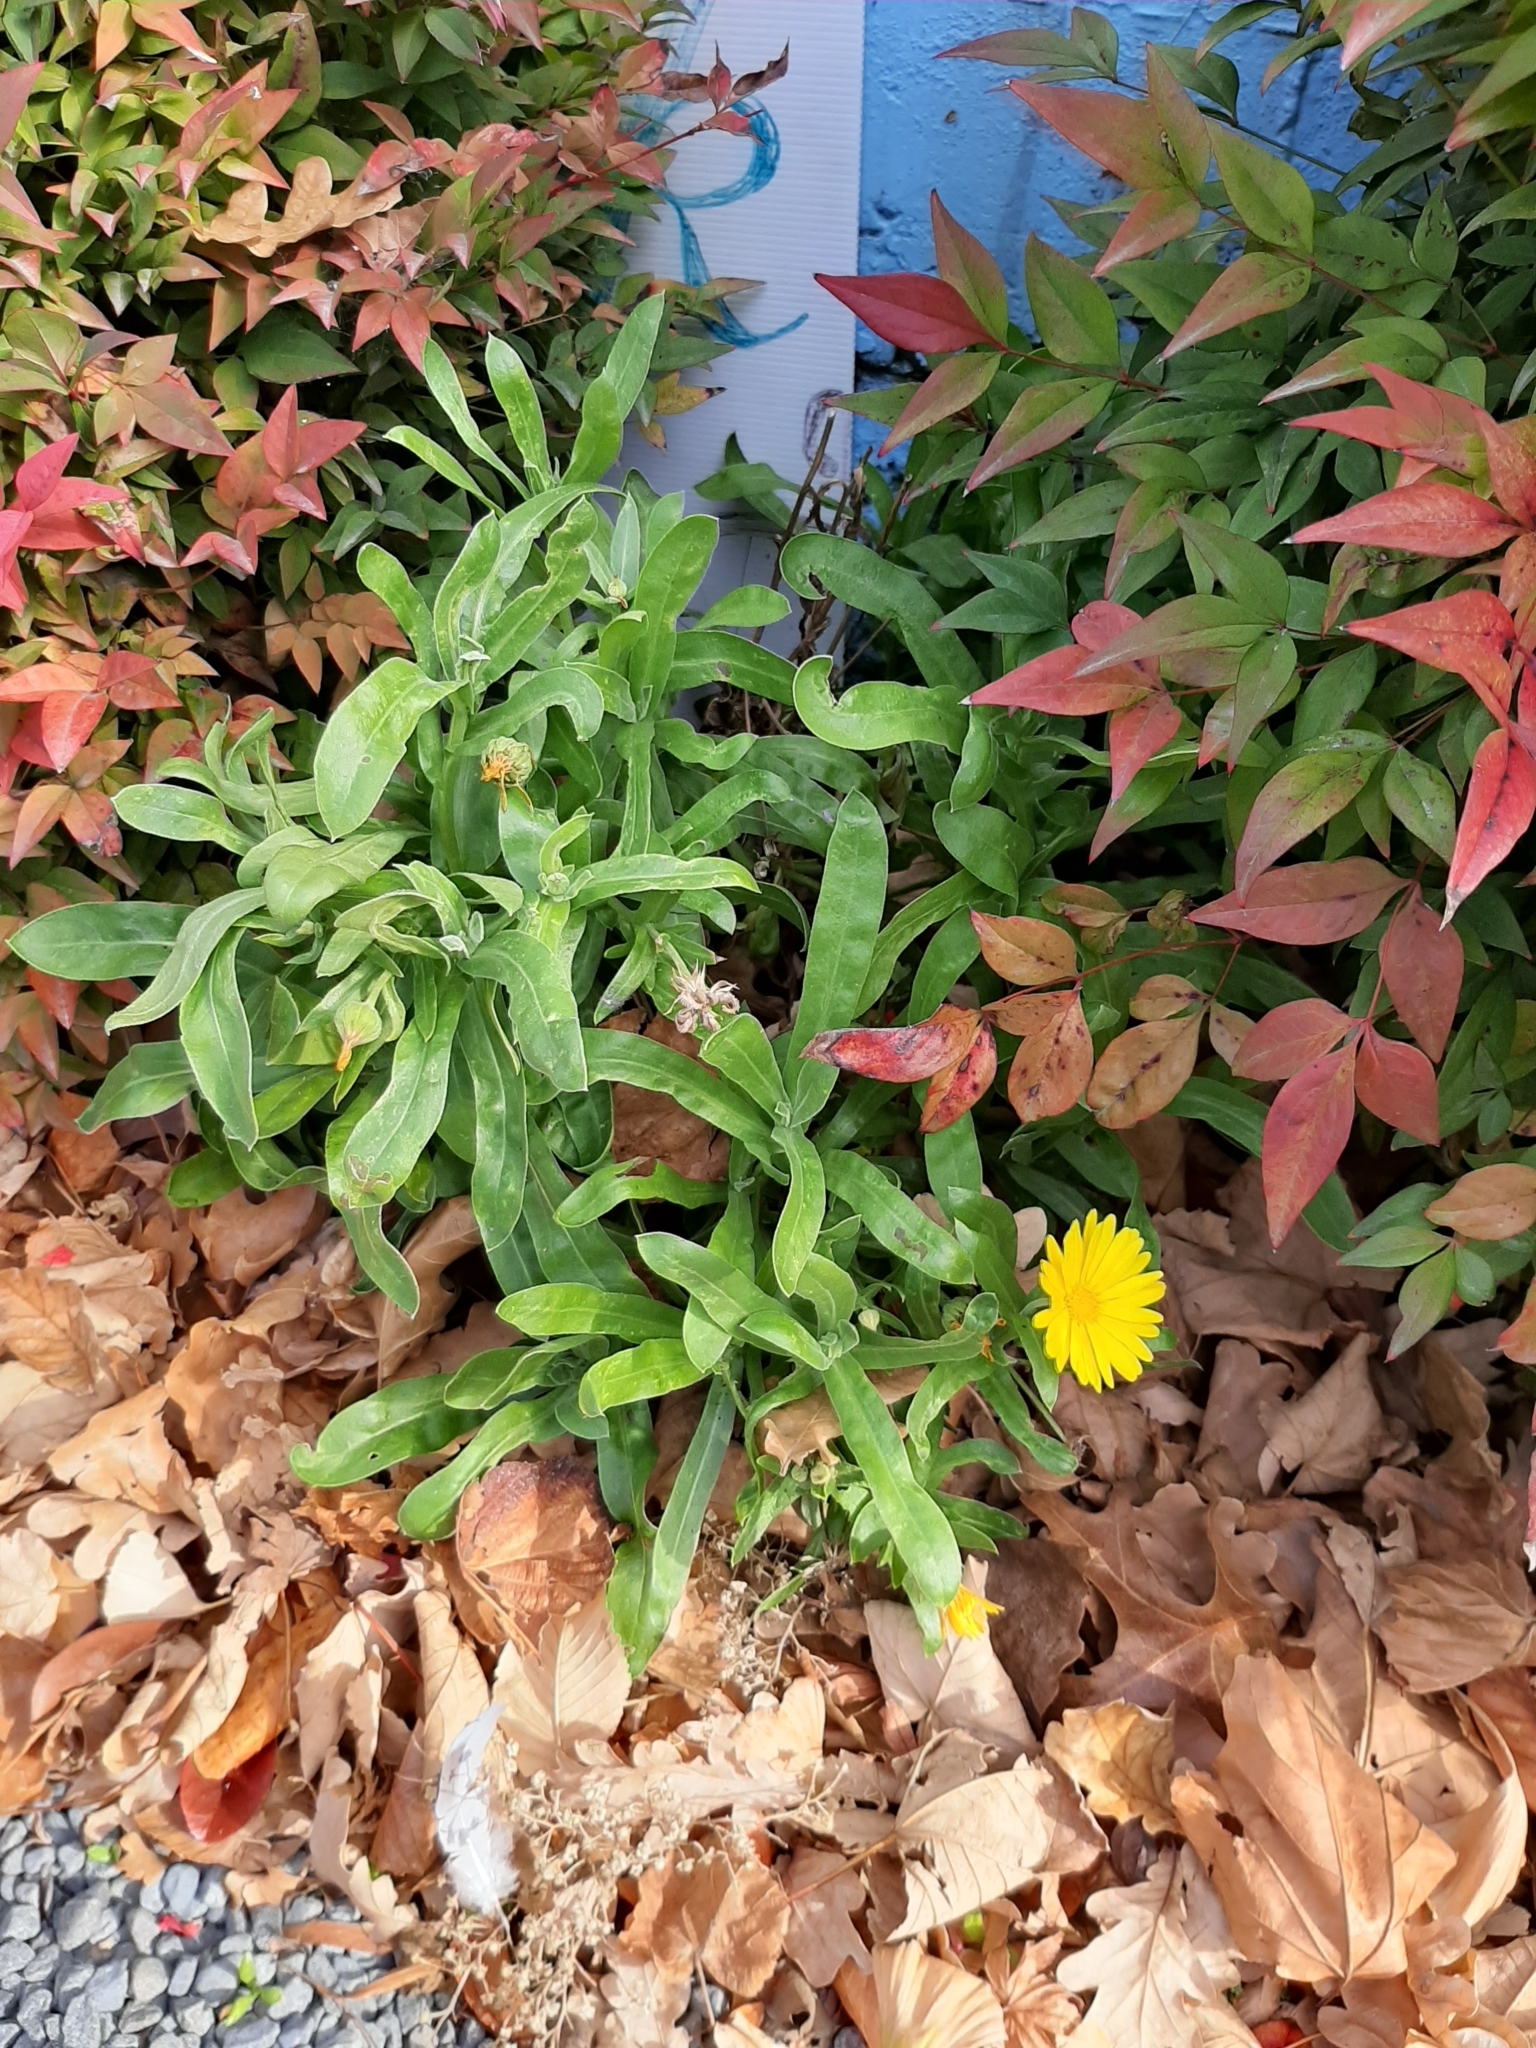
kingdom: Plantae
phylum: Tracheophyta
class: Magnoliopsida
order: Asterales
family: Asteraceae
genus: Calendula
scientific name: Calendula officinalis
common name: Pot marigold
